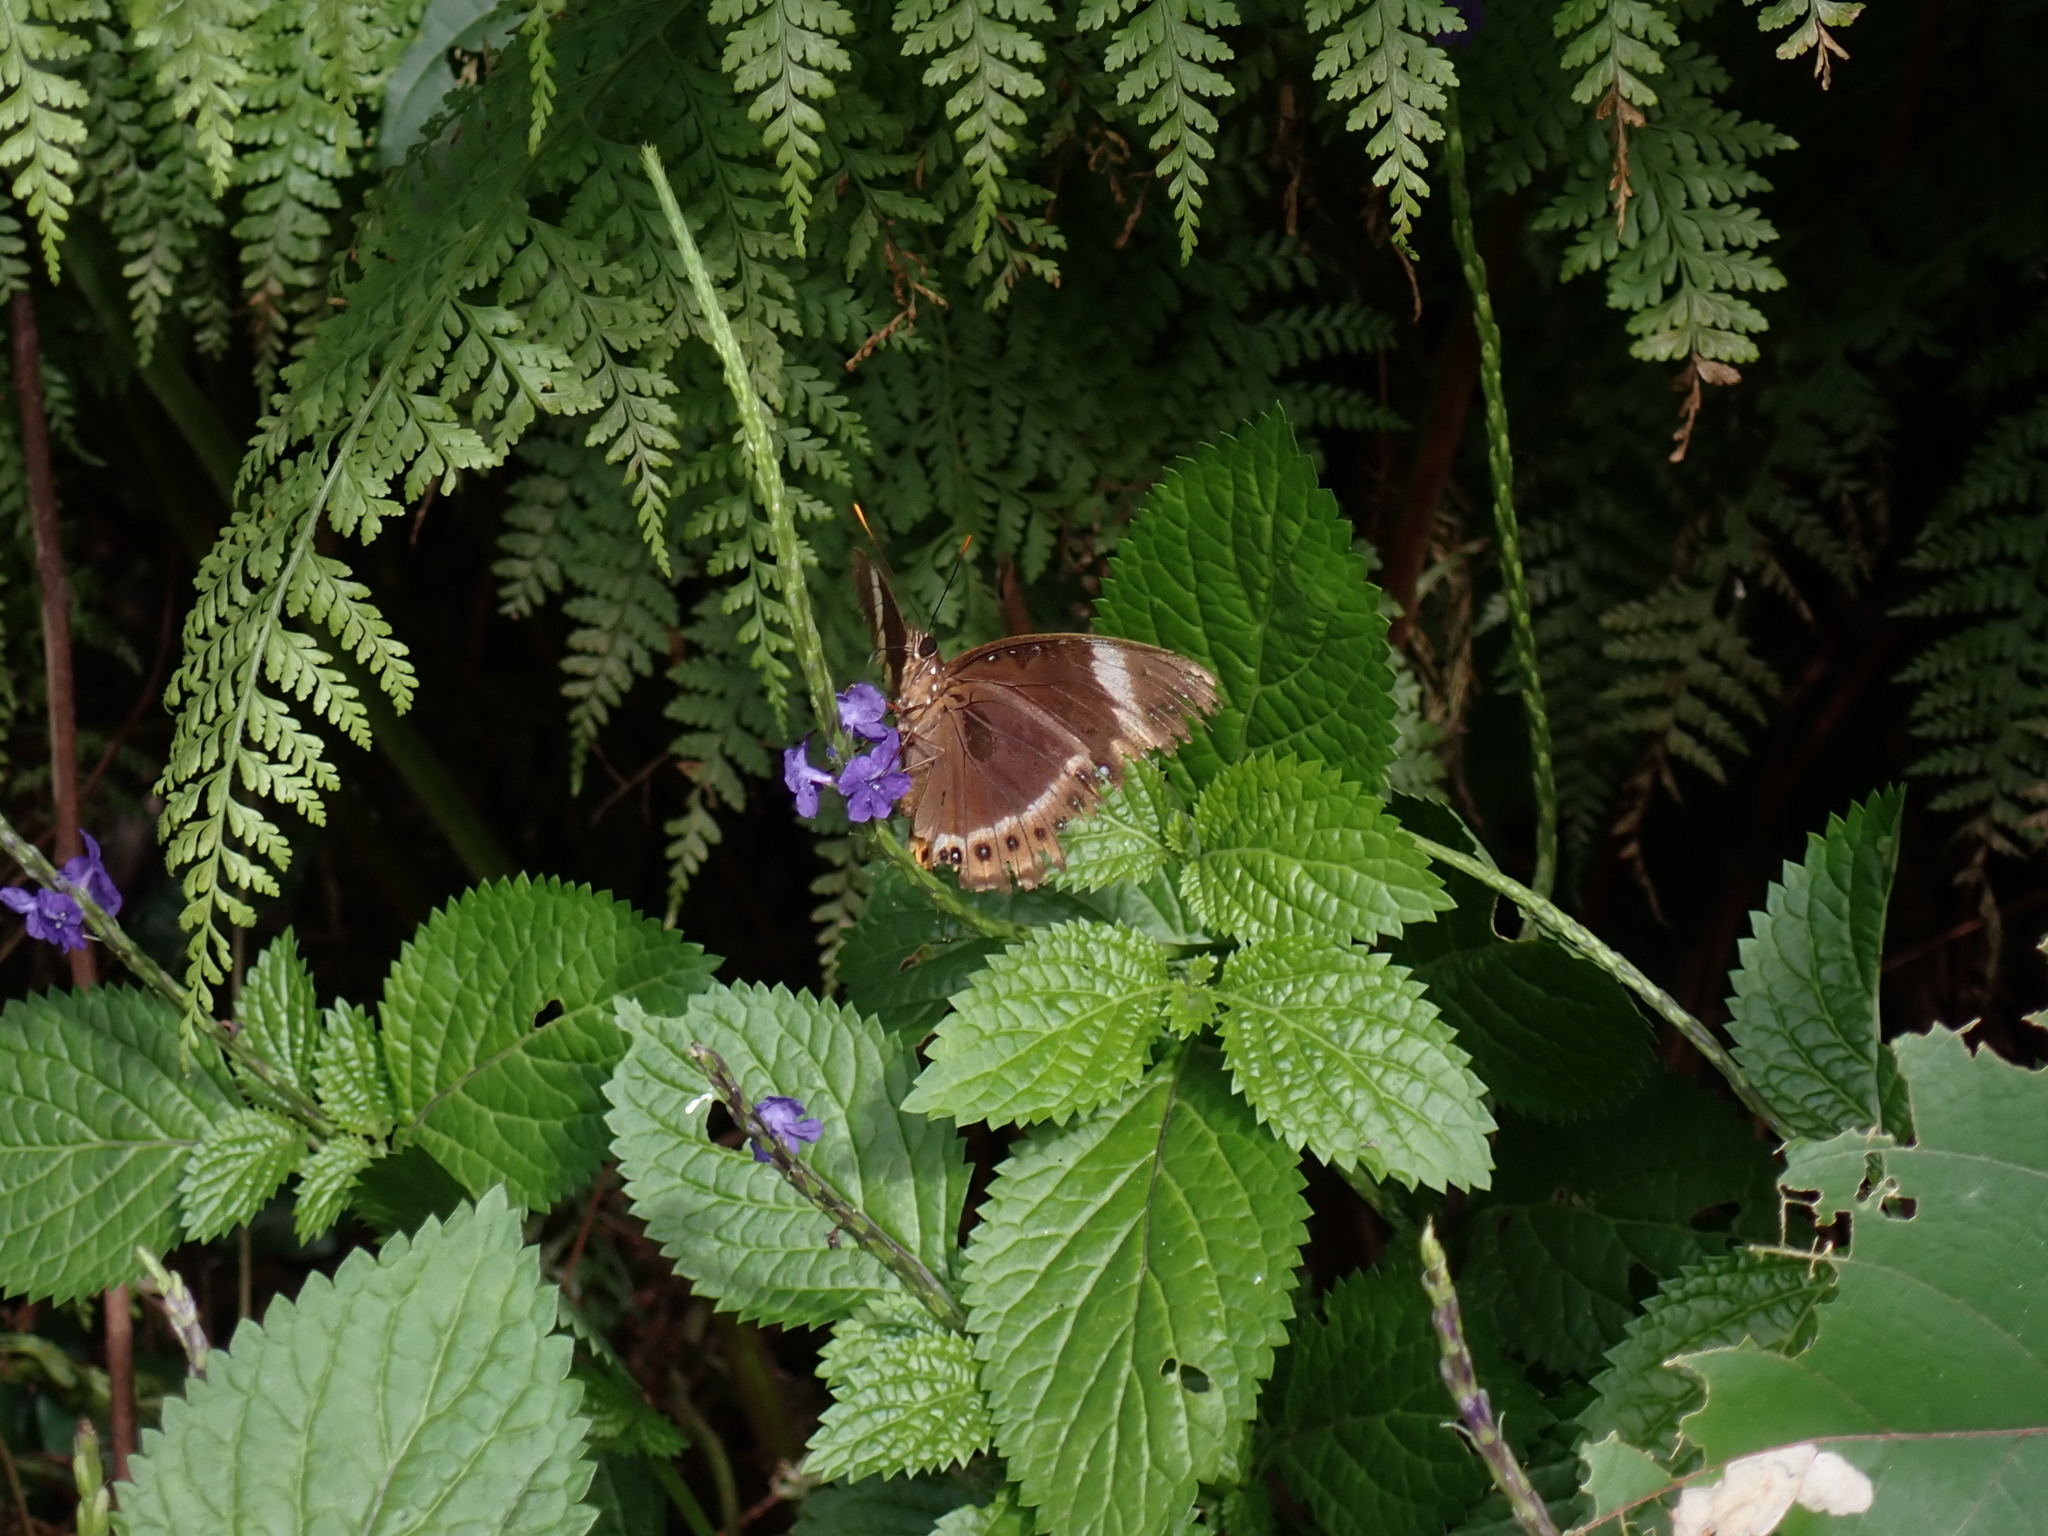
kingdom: Animalia
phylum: Arthropoda
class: Insecta
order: Lepidoptera
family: Nymphalidae
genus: Hypolimnas
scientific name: Hypolimnas octocula
